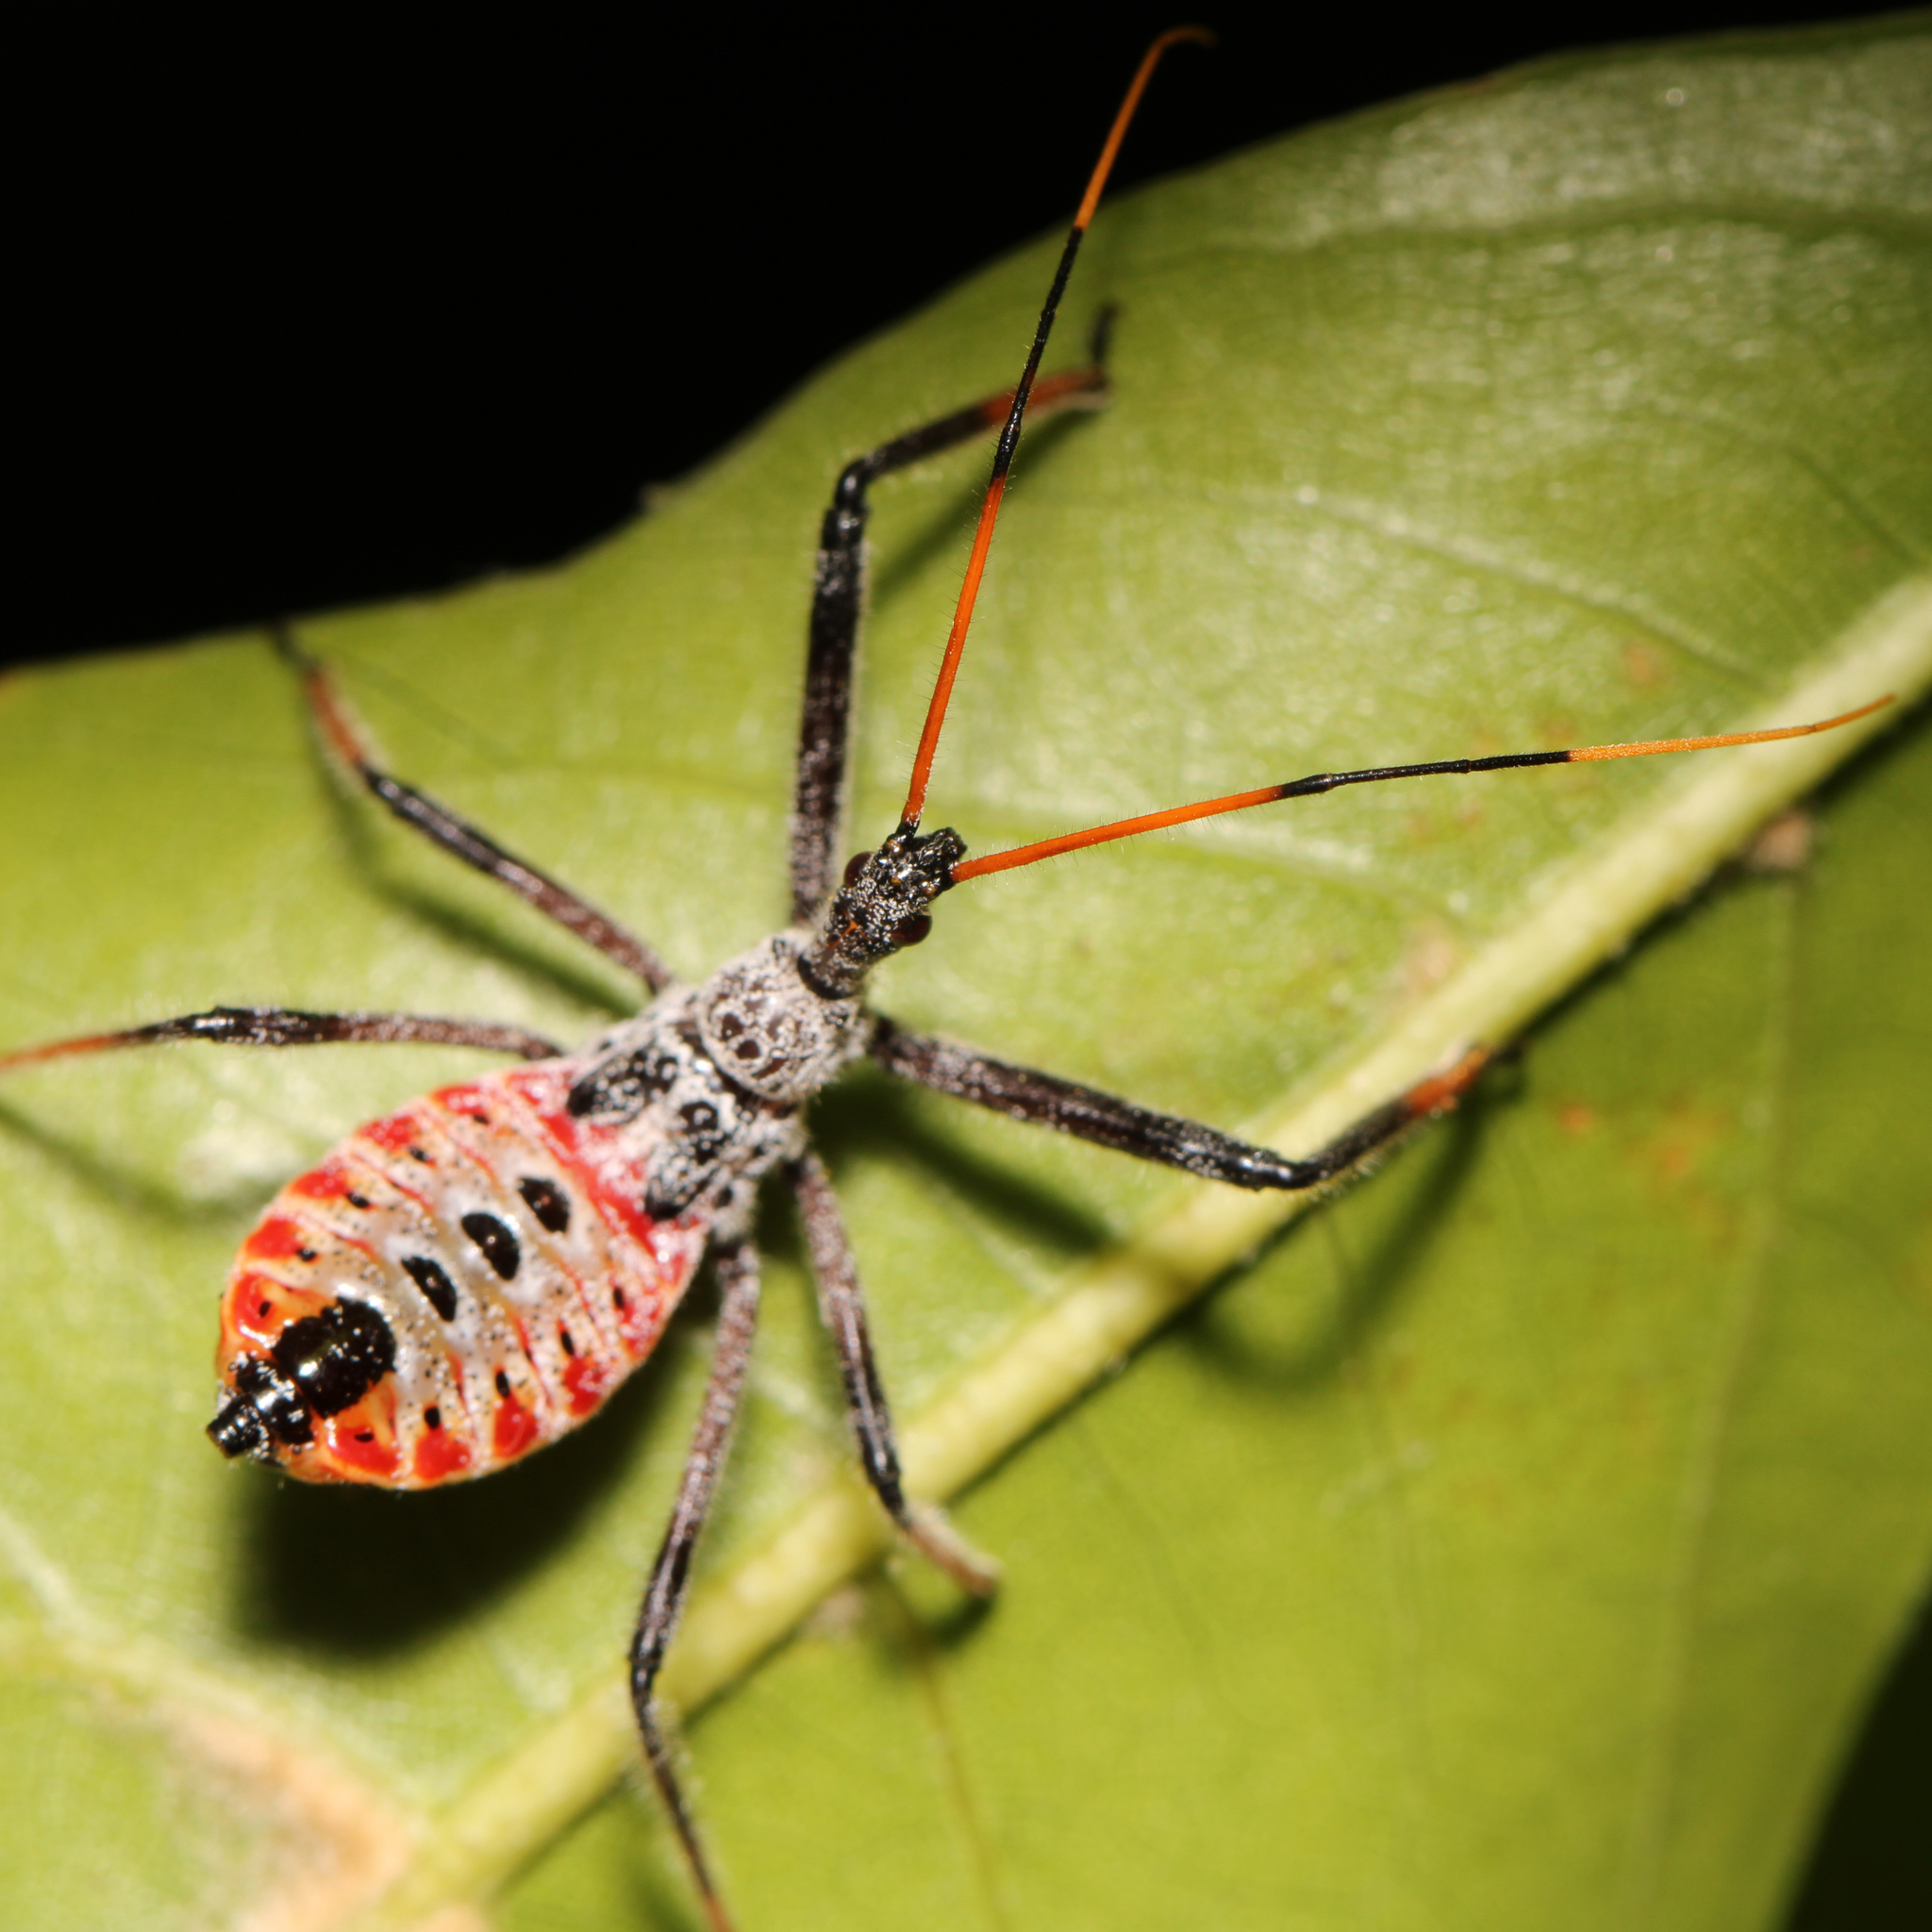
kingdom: Animalia
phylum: Arthropoda
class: Insecta
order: Hemiptera
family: Reduviidae
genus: Arilus
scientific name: Arilus cristatus
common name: North american wheel bug
